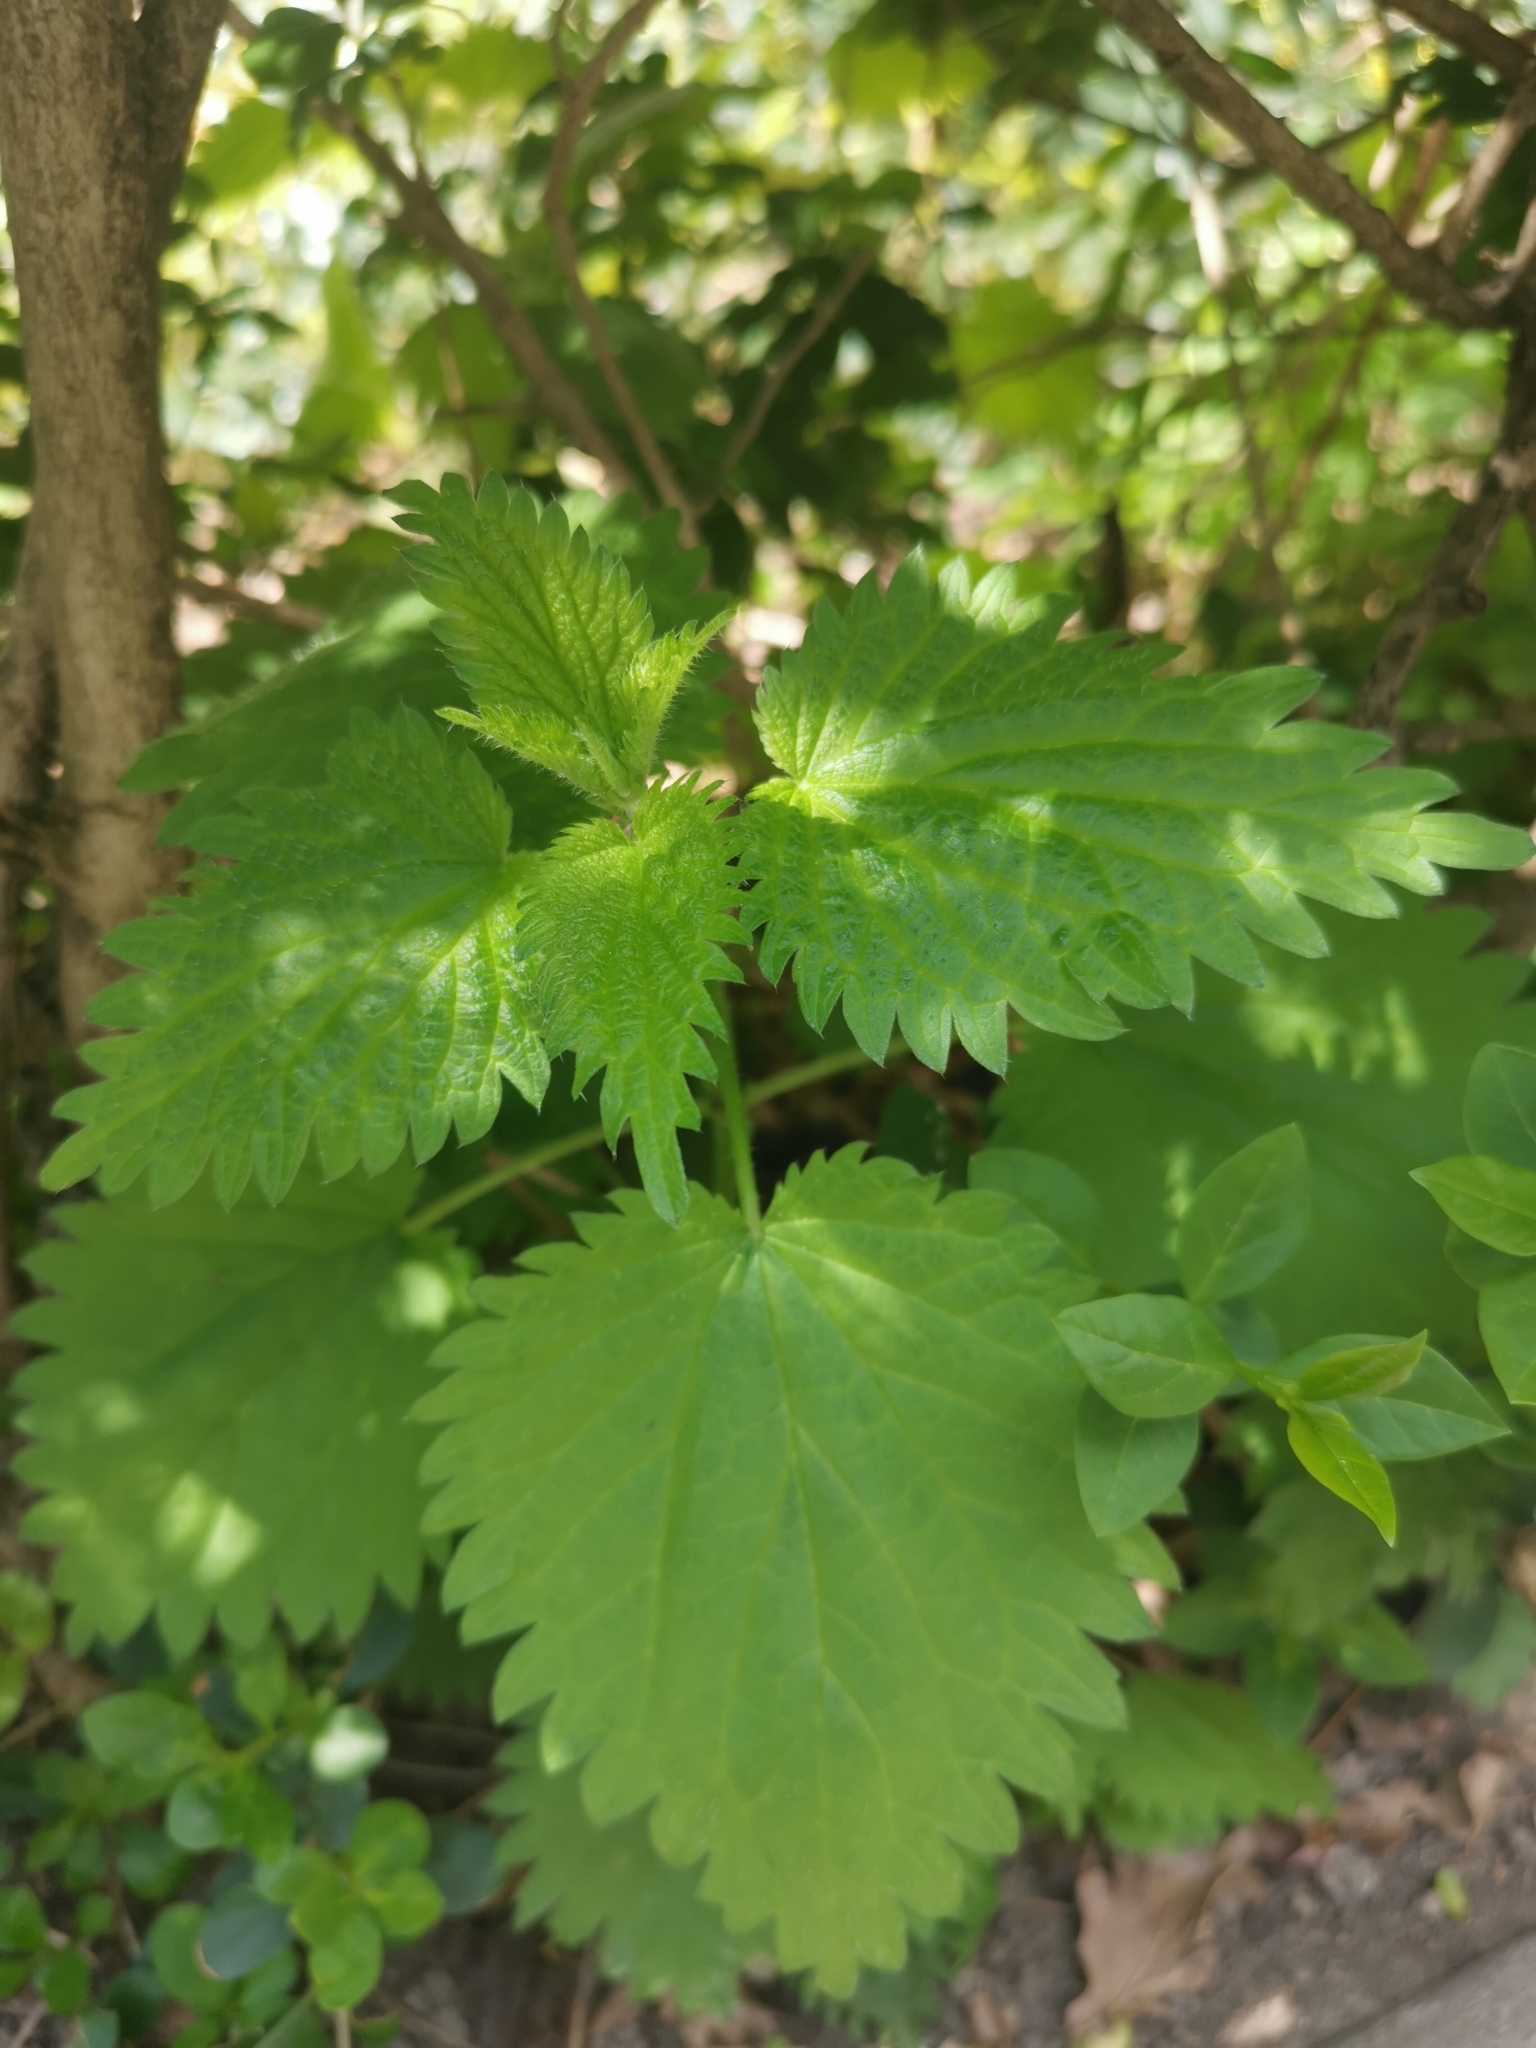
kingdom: Plantae
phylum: Tracheophyta
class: Magnoliopsida
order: Rosales
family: Urticaceae
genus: Urtica
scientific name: Urtica dioica
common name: Common nettle
